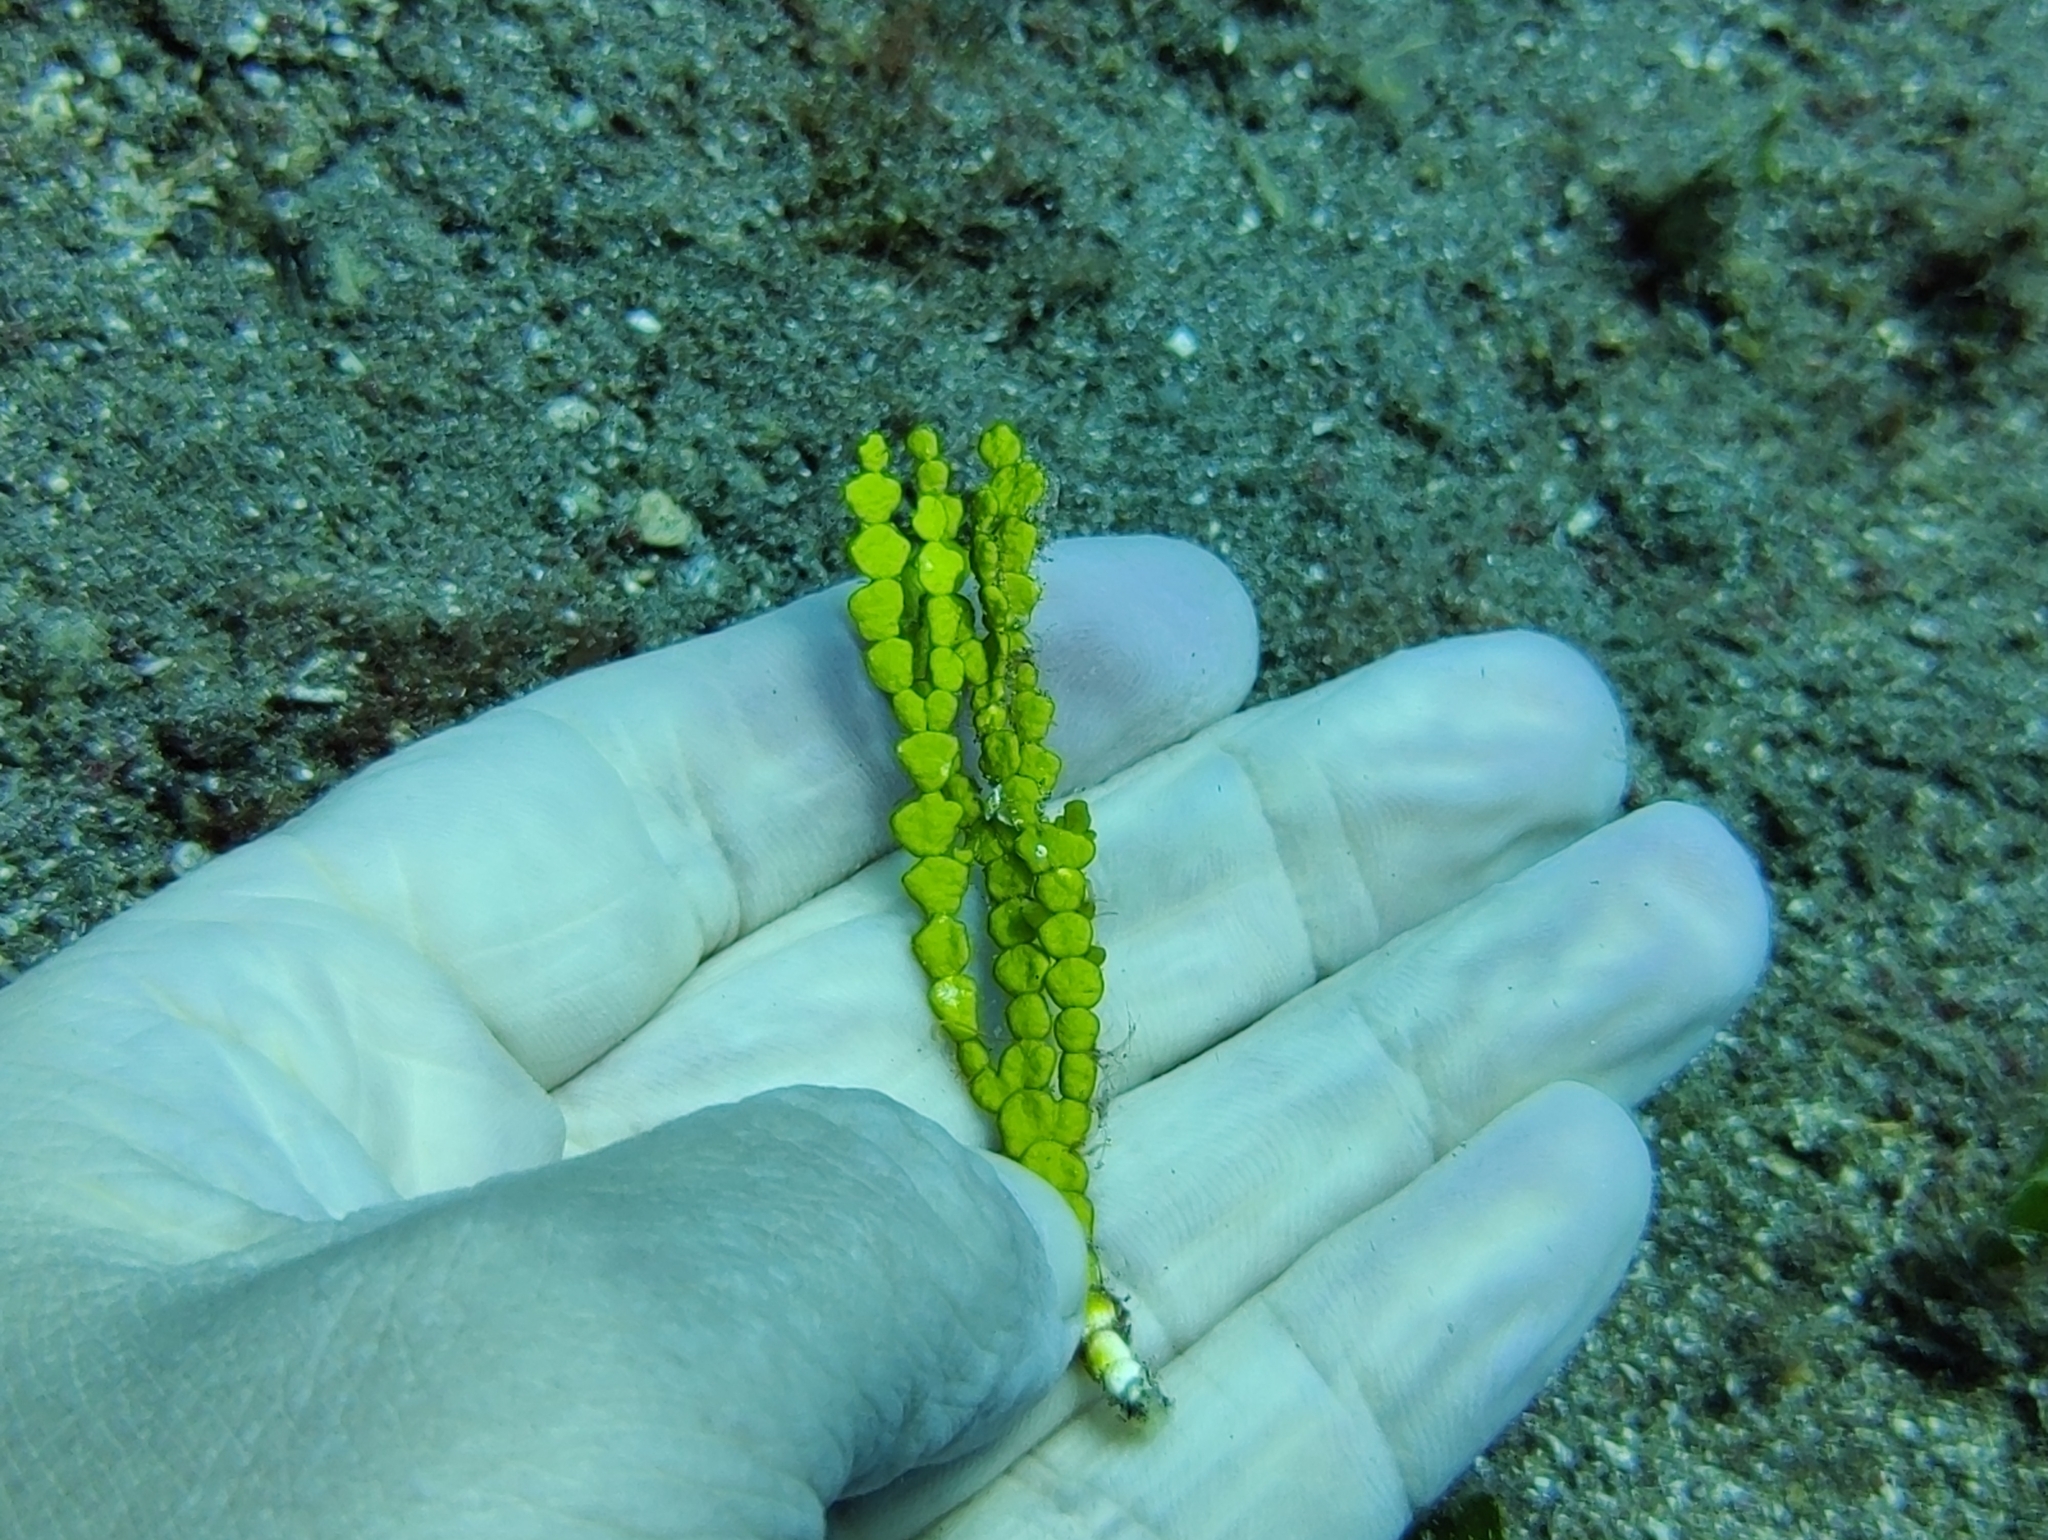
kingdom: Plantae
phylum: Chlorophyta
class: Ulvophyceae
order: Bryopsidales
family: Halimedaceae
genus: Halimeda
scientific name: Halimeda incrassata
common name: Three finger leaf algae
